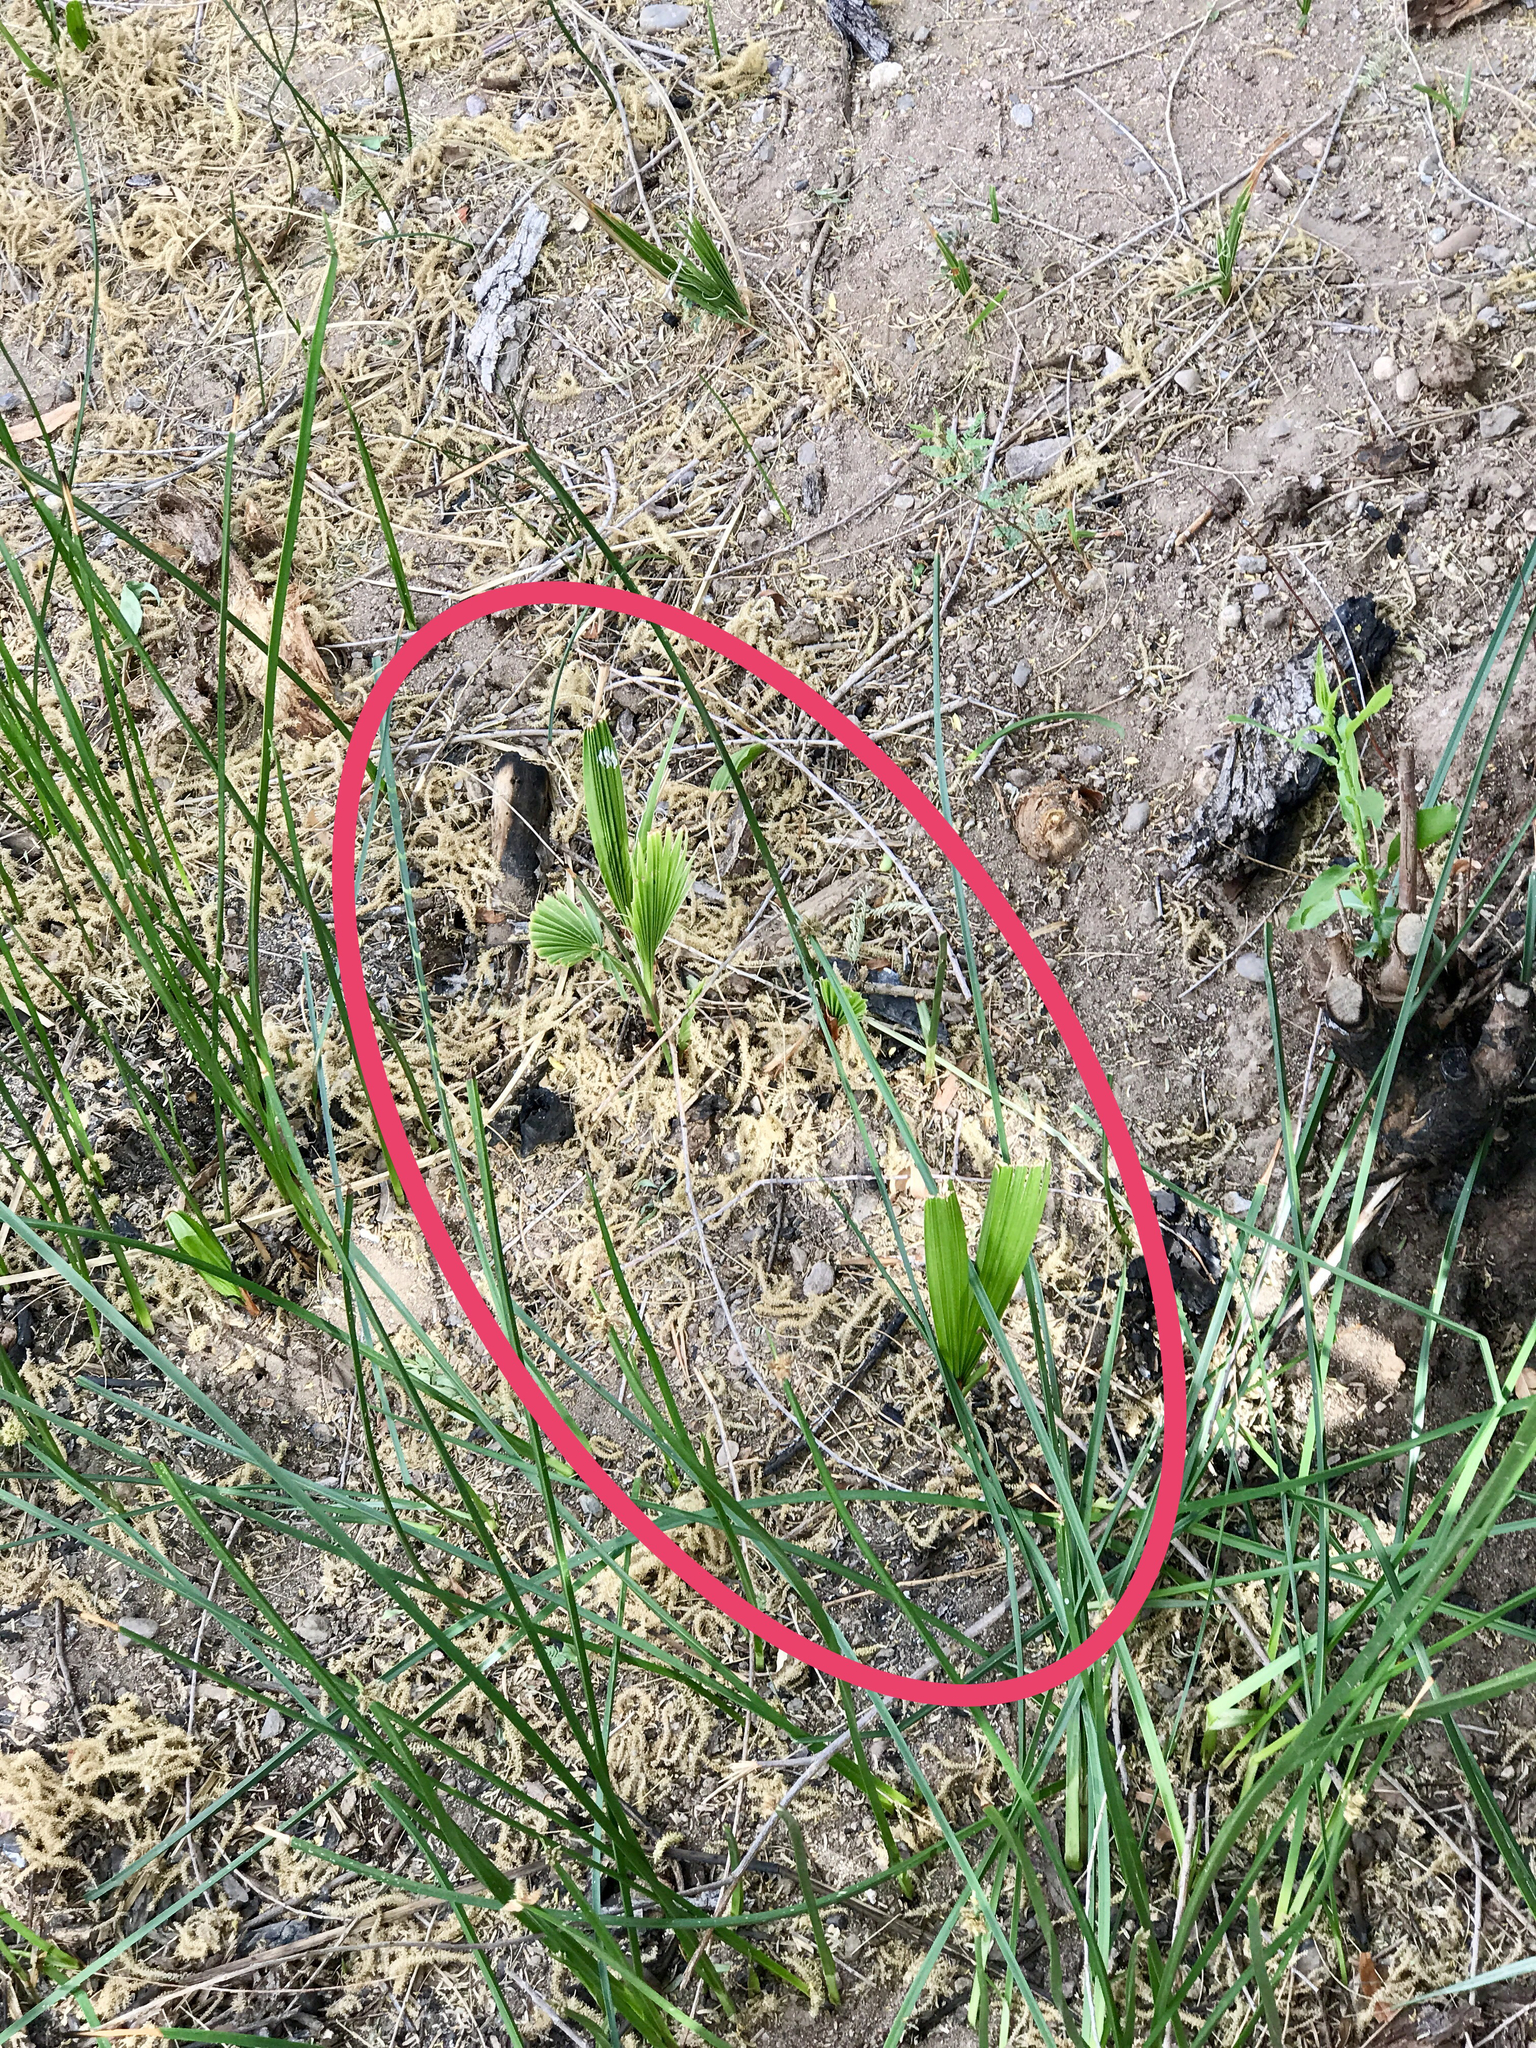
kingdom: Plantae
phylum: Tracheophyta
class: Liliopsida
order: Arecales
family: Arecaceae
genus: Washingtonia
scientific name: Washingtonia filifera
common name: California fan palm
